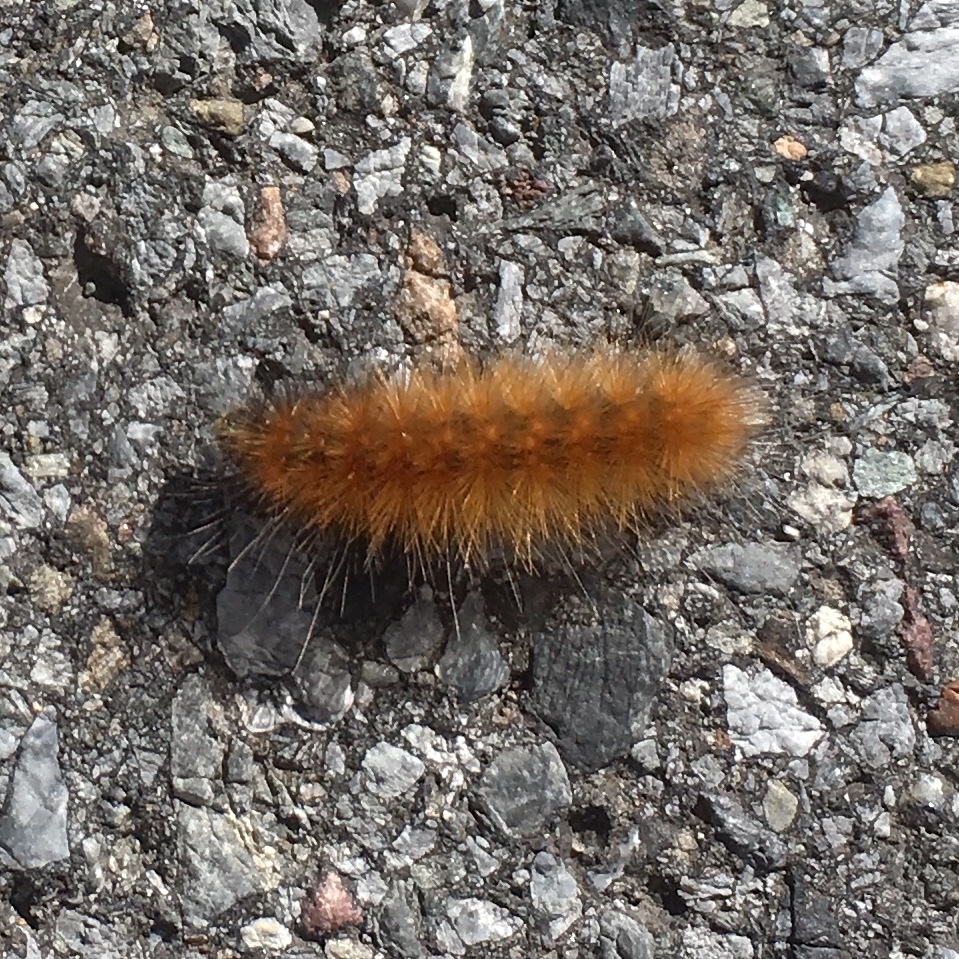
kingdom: Animalia
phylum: Arthropoda
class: Insecta
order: Lepidoptera
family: Erebidae
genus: Spilosoma
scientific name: Spilosoma virginica
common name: Virginia tiger moth
